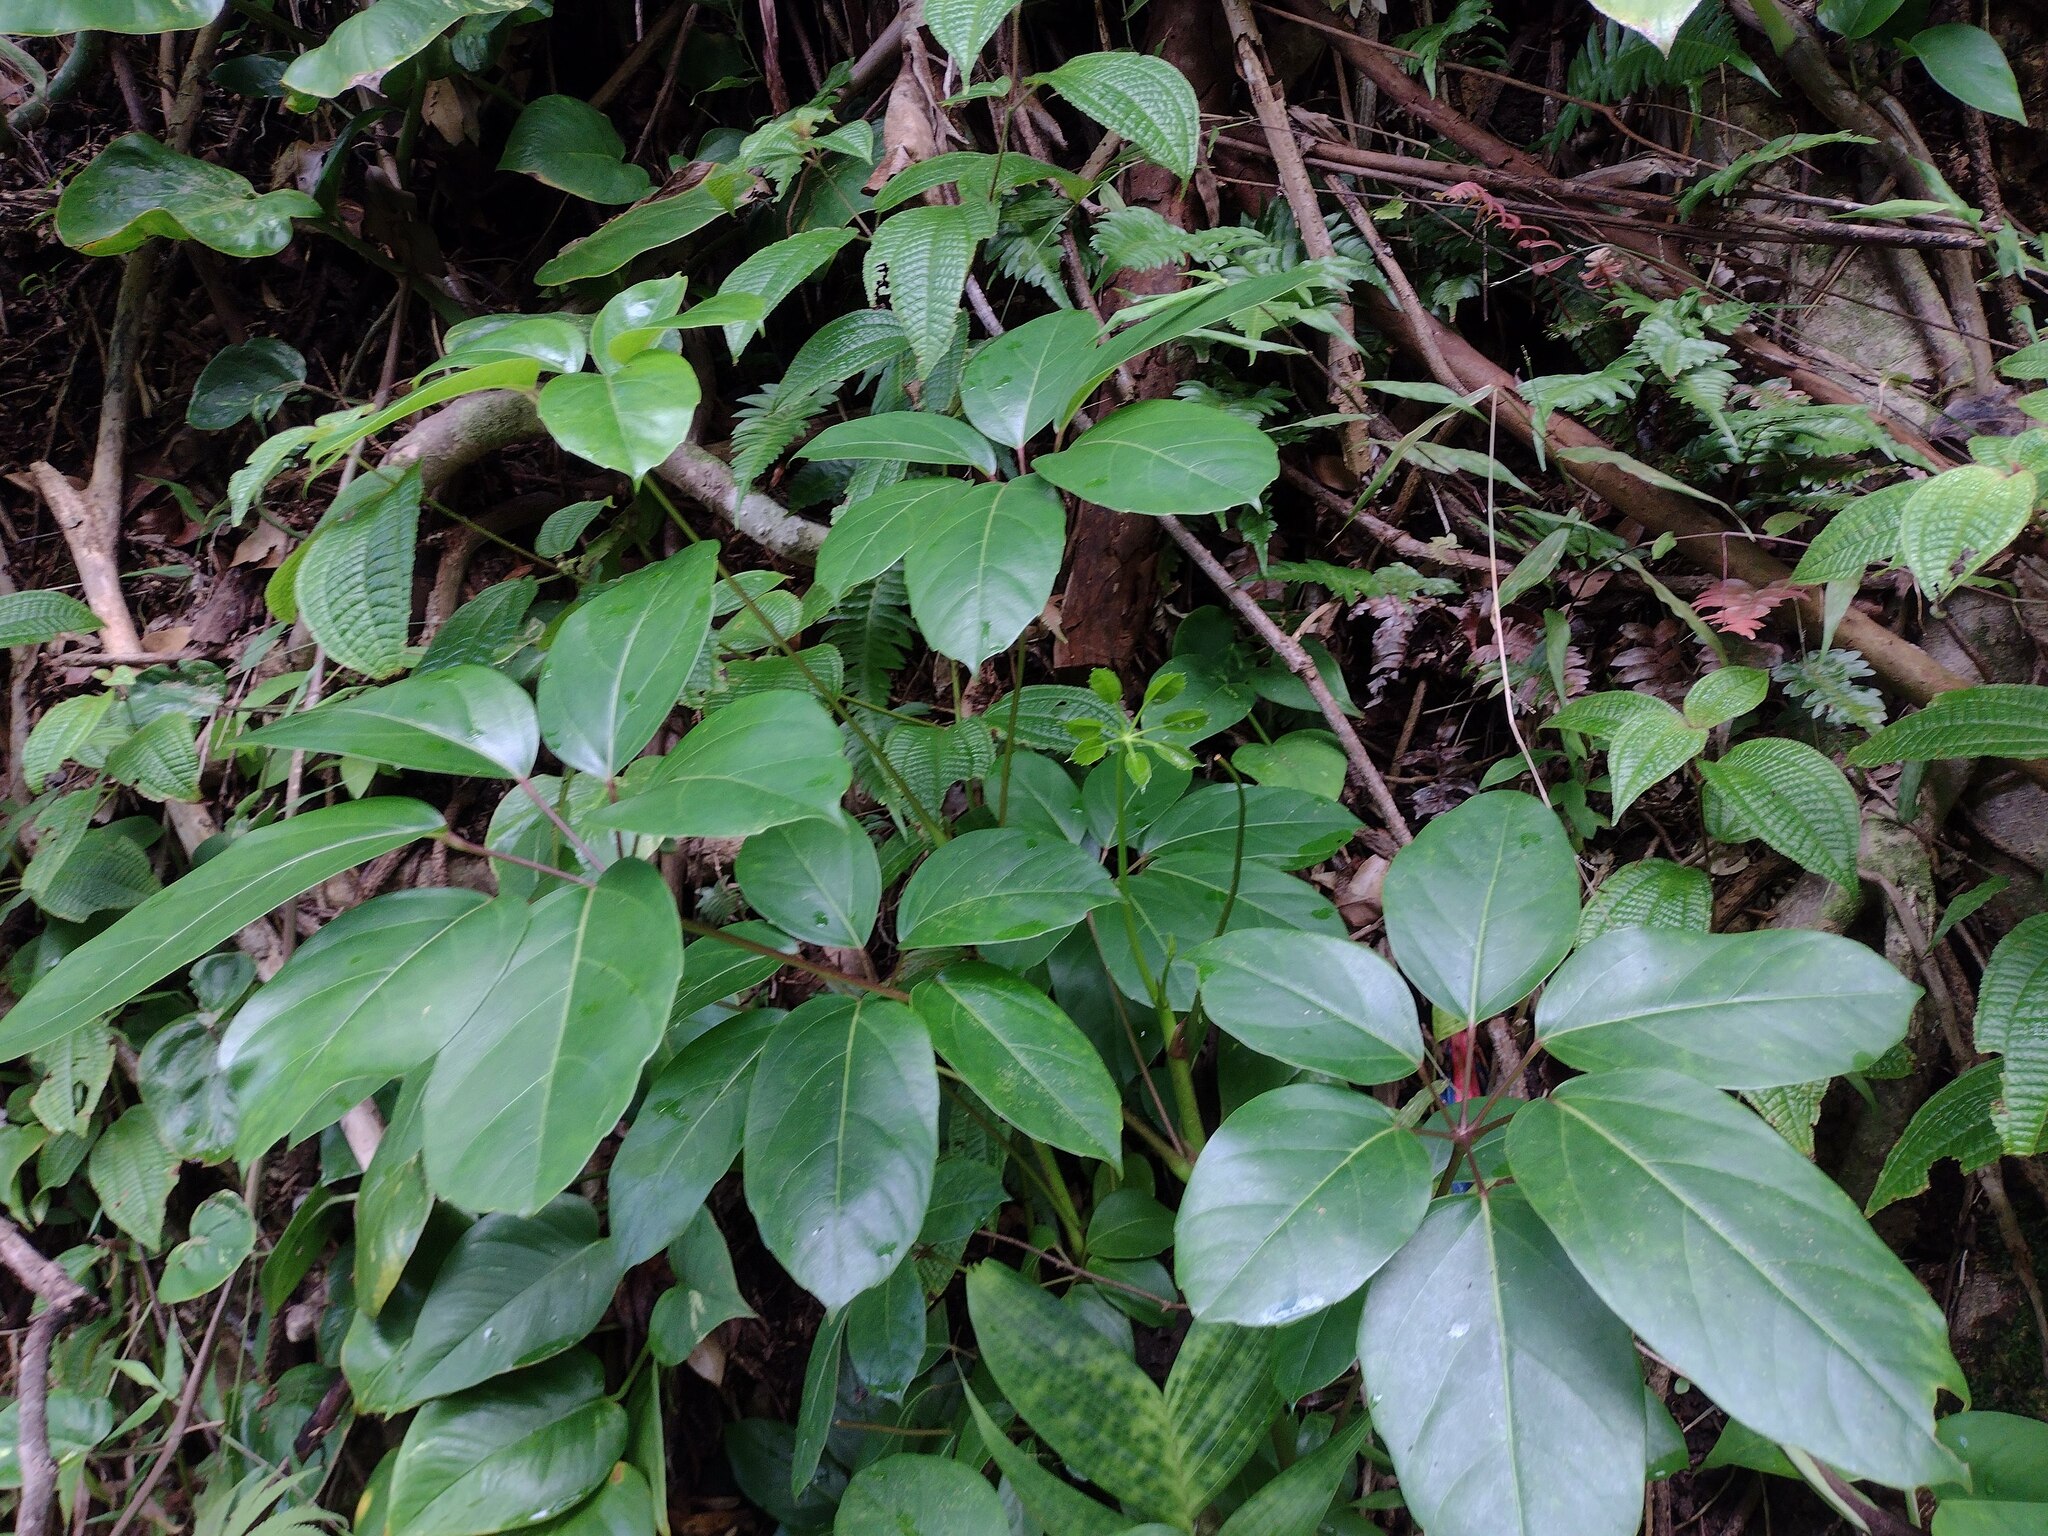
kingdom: Plantae
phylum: Tracheophyta
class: Magnoliopsida
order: Apiales
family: Araliaceae
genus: Heptapleurum
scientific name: Heptapleurum actinophyllum
